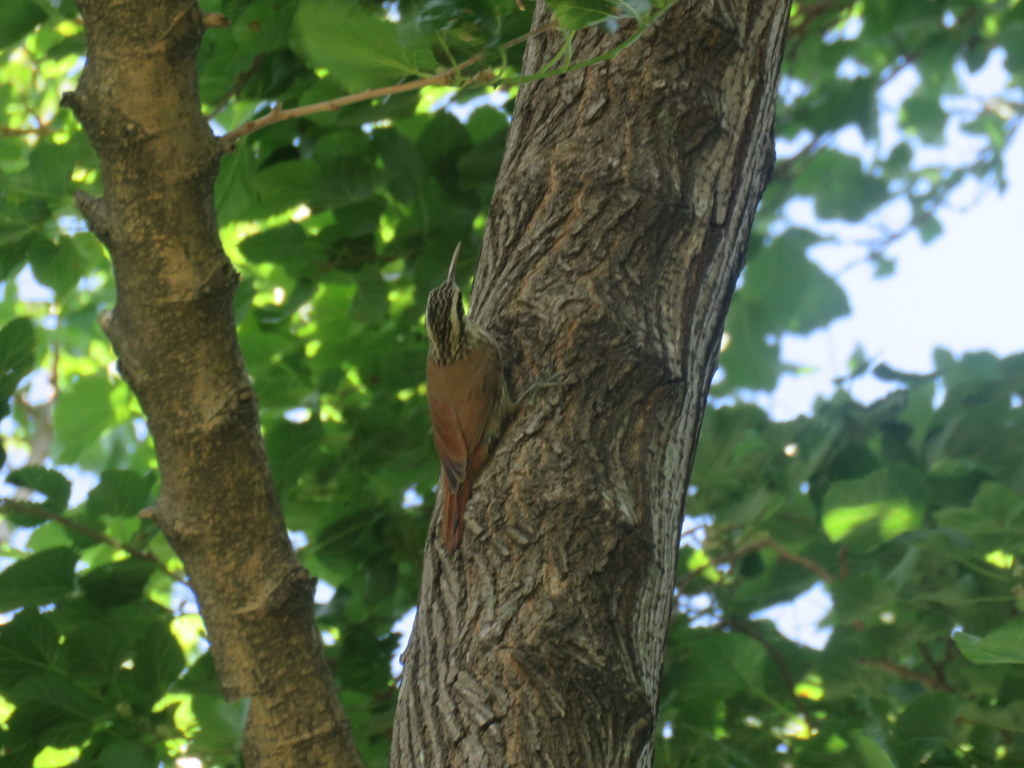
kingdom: Animalia
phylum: Chordata
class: Aves
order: Passeriformes
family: Furnariidae
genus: Lepidocolaptes
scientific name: Lepidocolaptes angustirostris
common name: Narrow-billed woodcreeper
